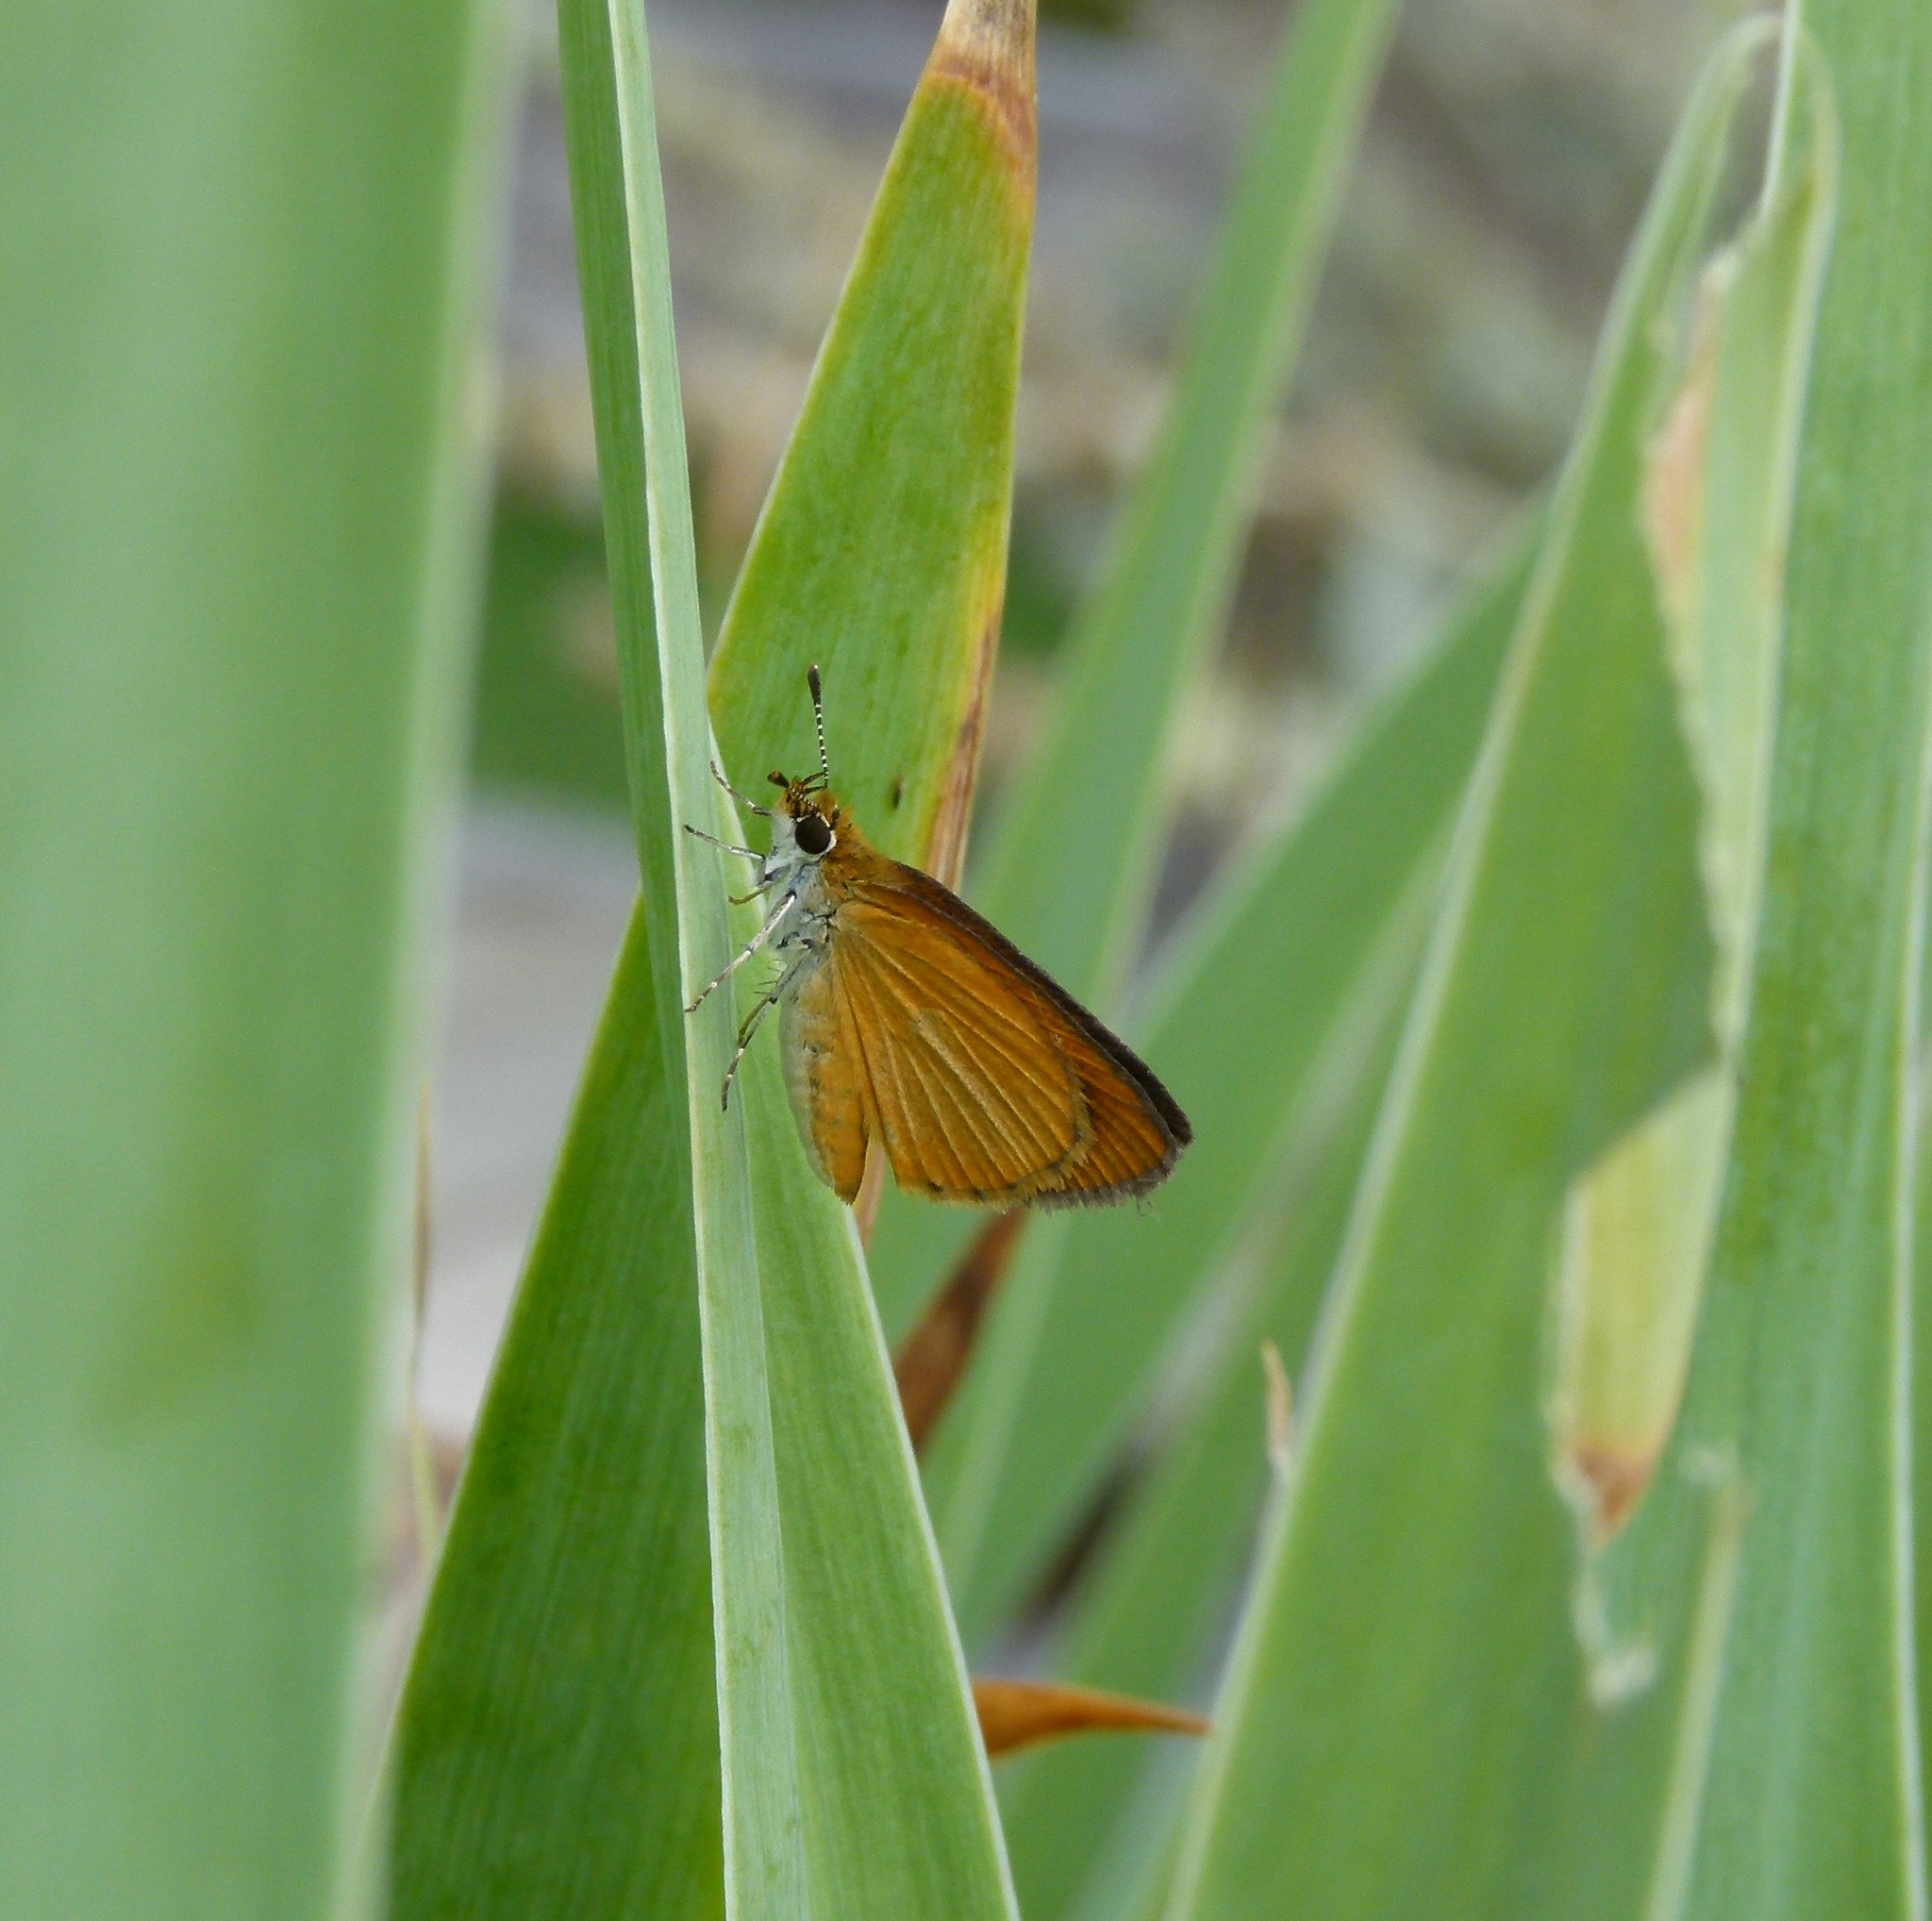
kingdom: Animalia
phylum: Arthropoda
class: Insecta
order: Lepidoptera
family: Hesperiidae
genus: Ancyloxypha
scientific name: Ancyloxypha numitor
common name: Least skipper
